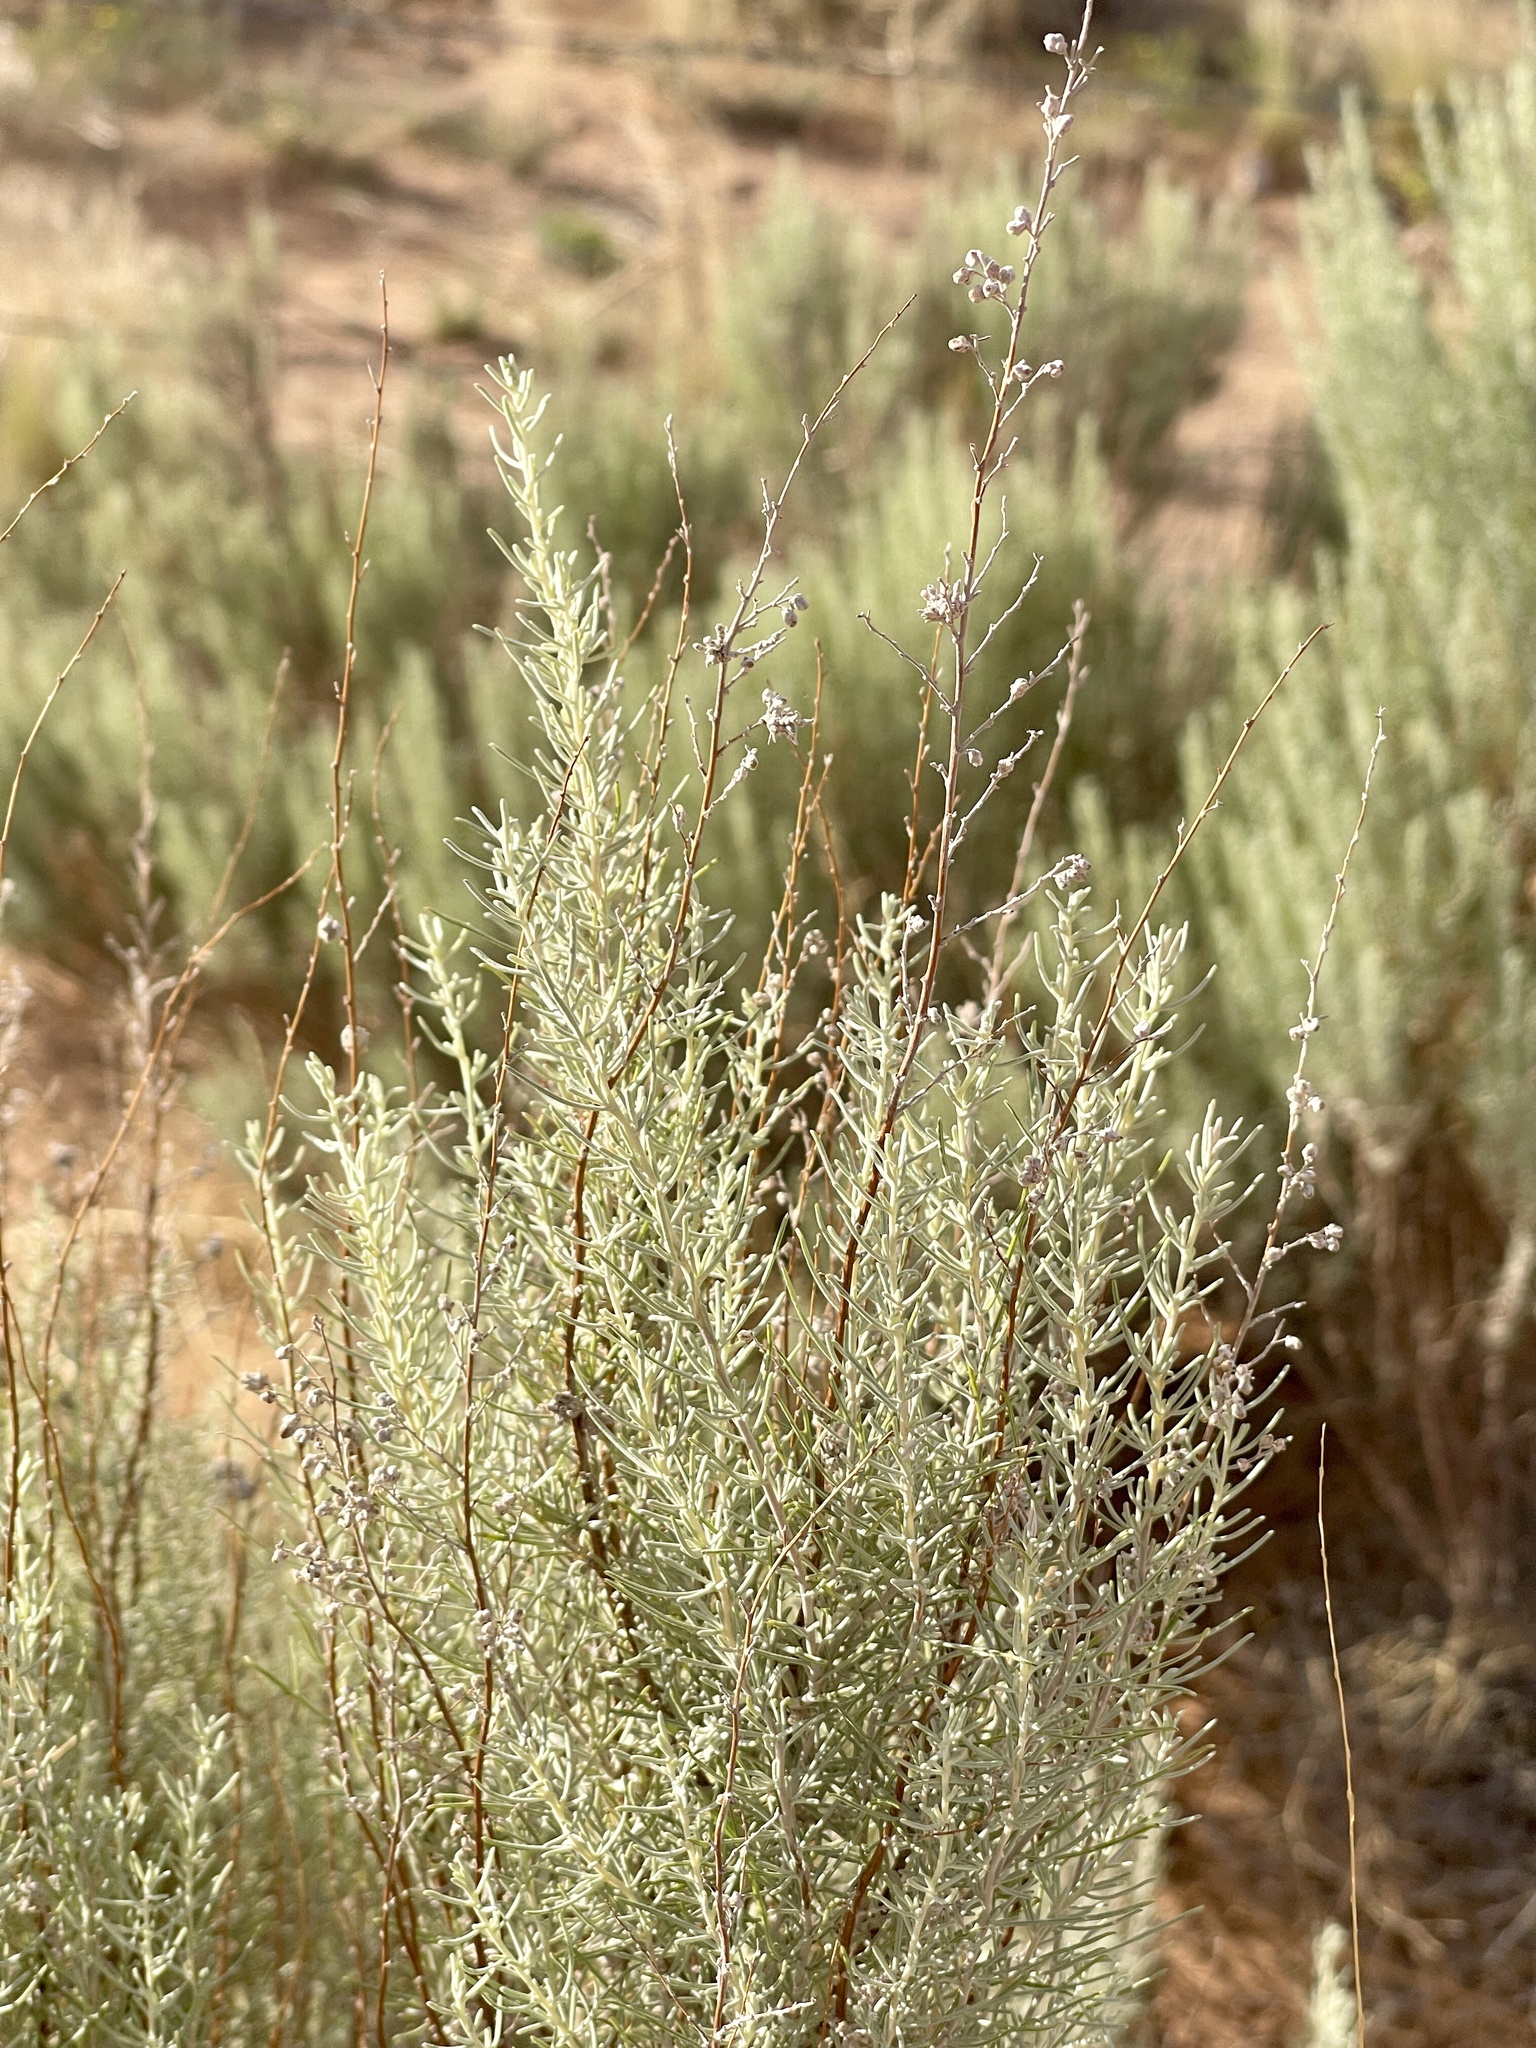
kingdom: Plantae
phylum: Tracheophyta
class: Magnoliopsida
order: Asterales
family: Asteraceae
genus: Artemisia
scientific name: Artemisia filifolia
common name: Sand-sage
